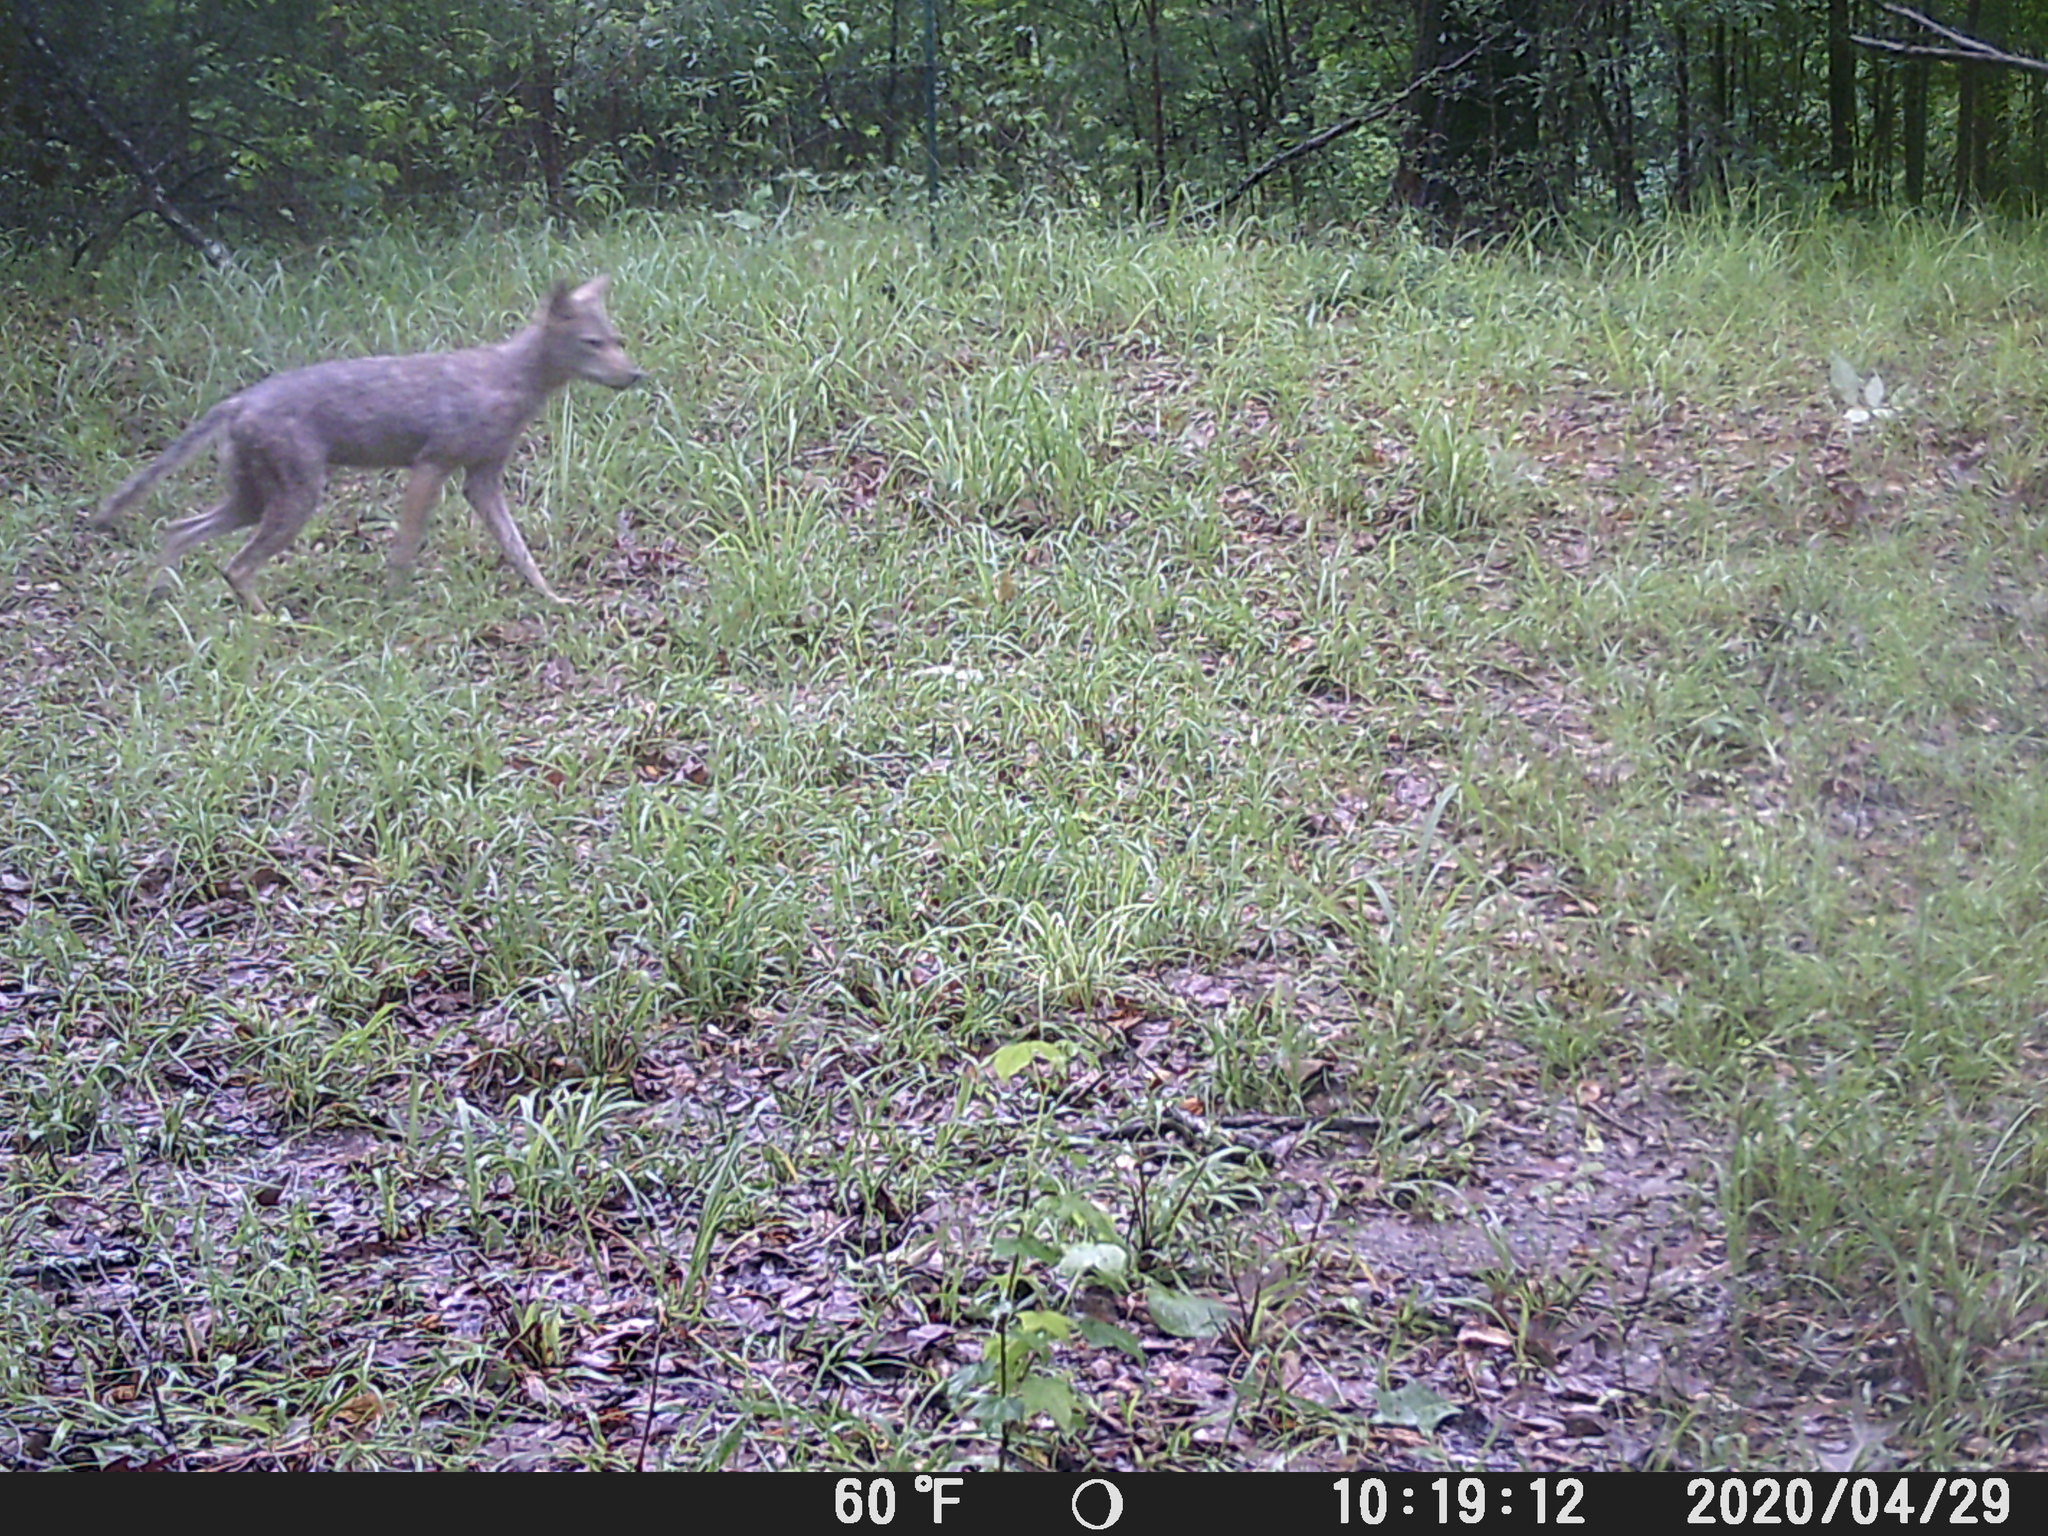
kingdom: Animalia
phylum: Chordata
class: Mammalia
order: Carnivora
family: Canidae
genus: Canis
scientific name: Canis latrans
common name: Coyote
